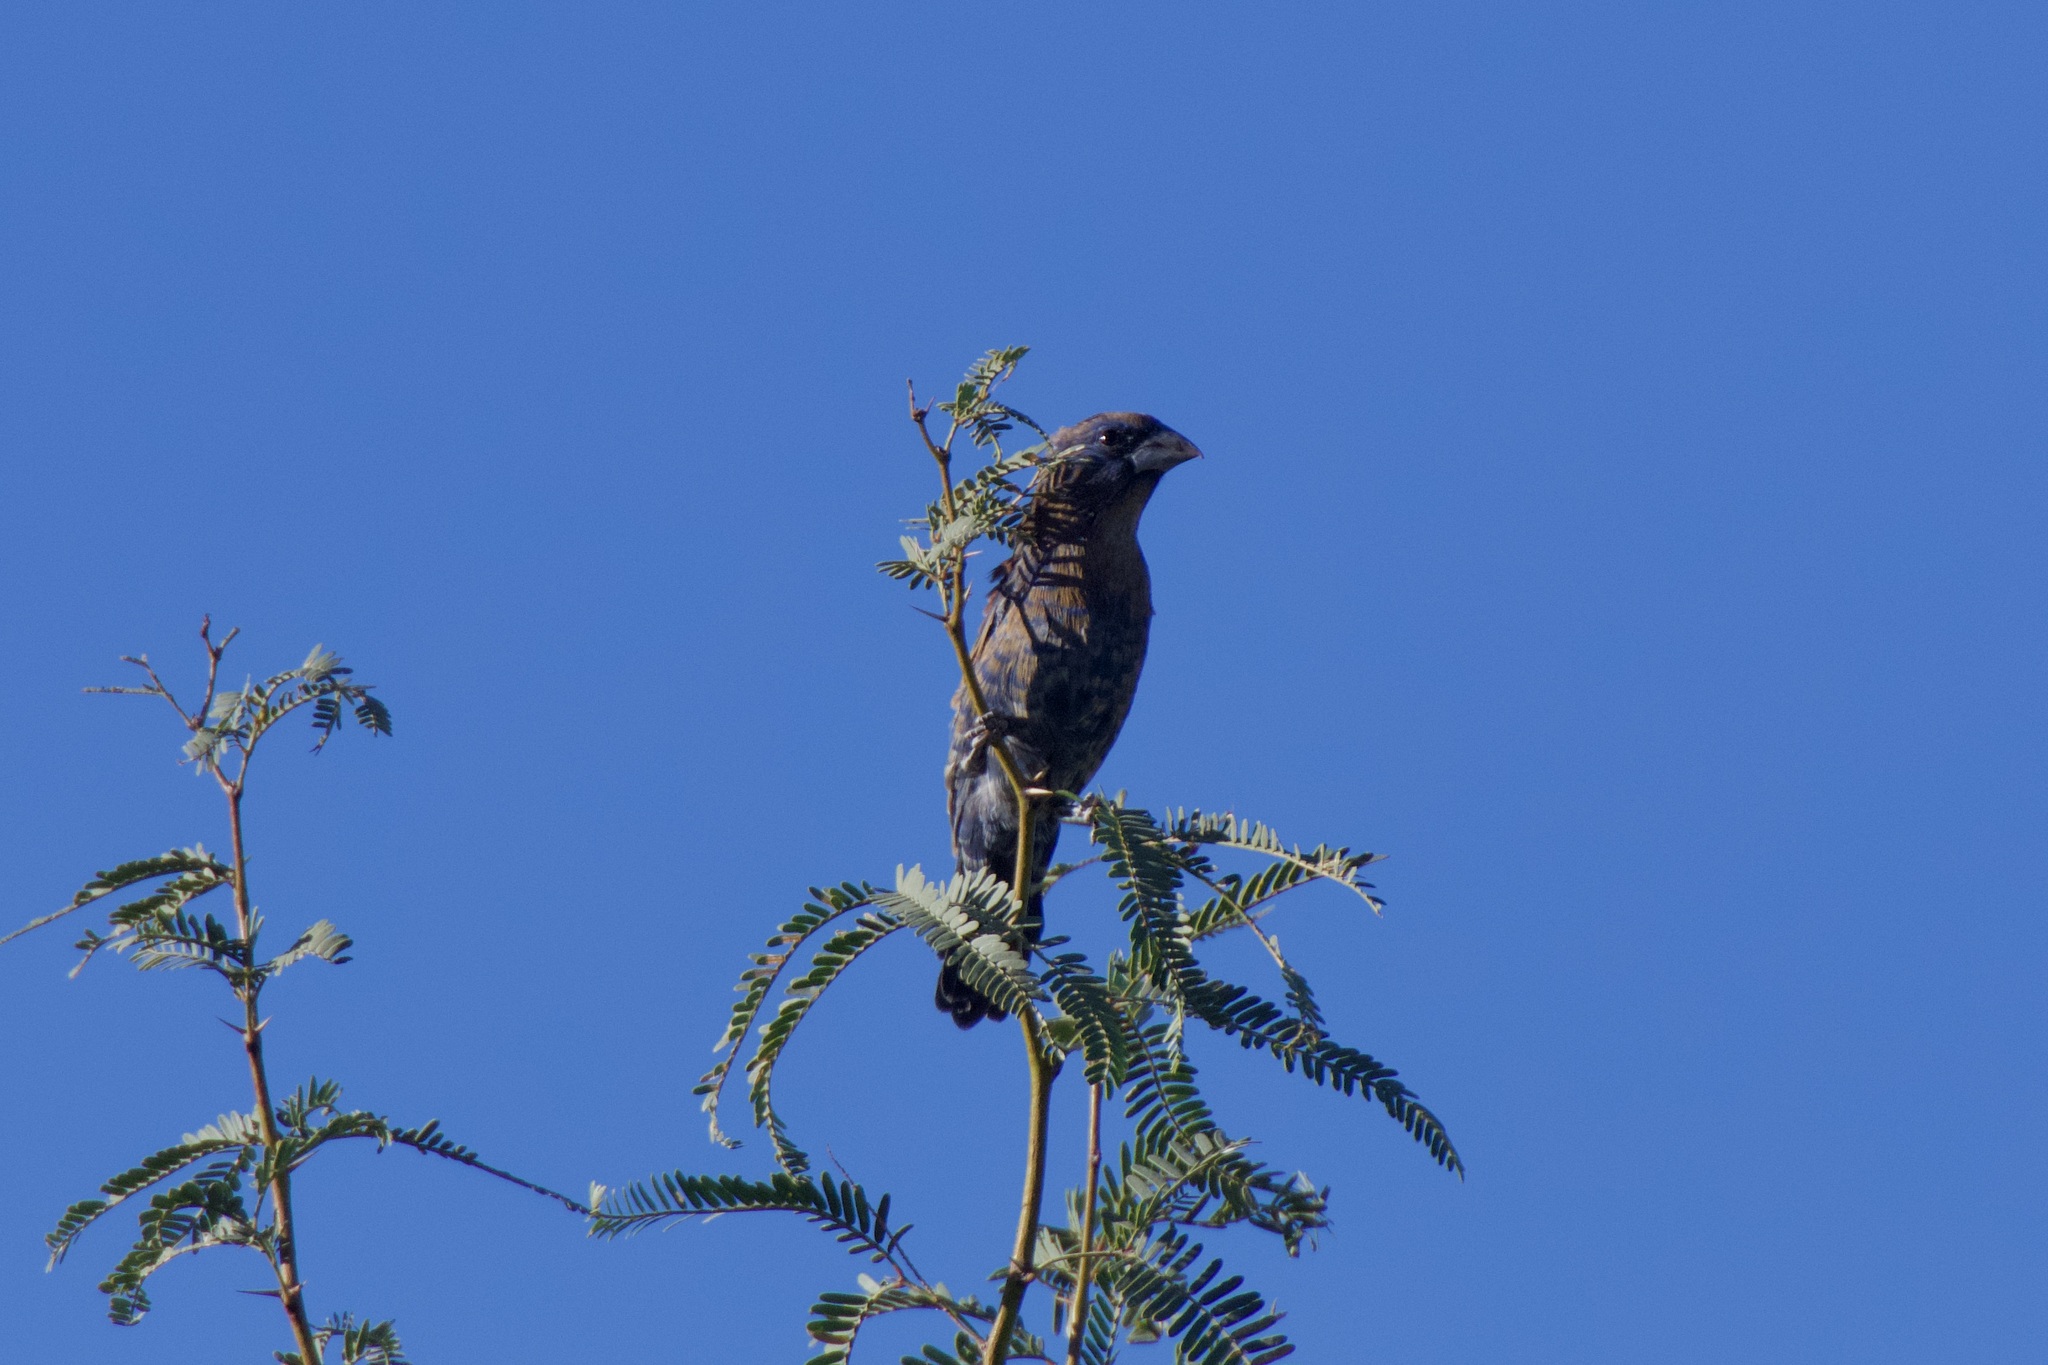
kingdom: Animalia
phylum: Chordata
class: Aves
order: Passeriformes
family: Cardinalidae
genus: Passerina
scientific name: Passerina caerulea
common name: Blue grosbeak
